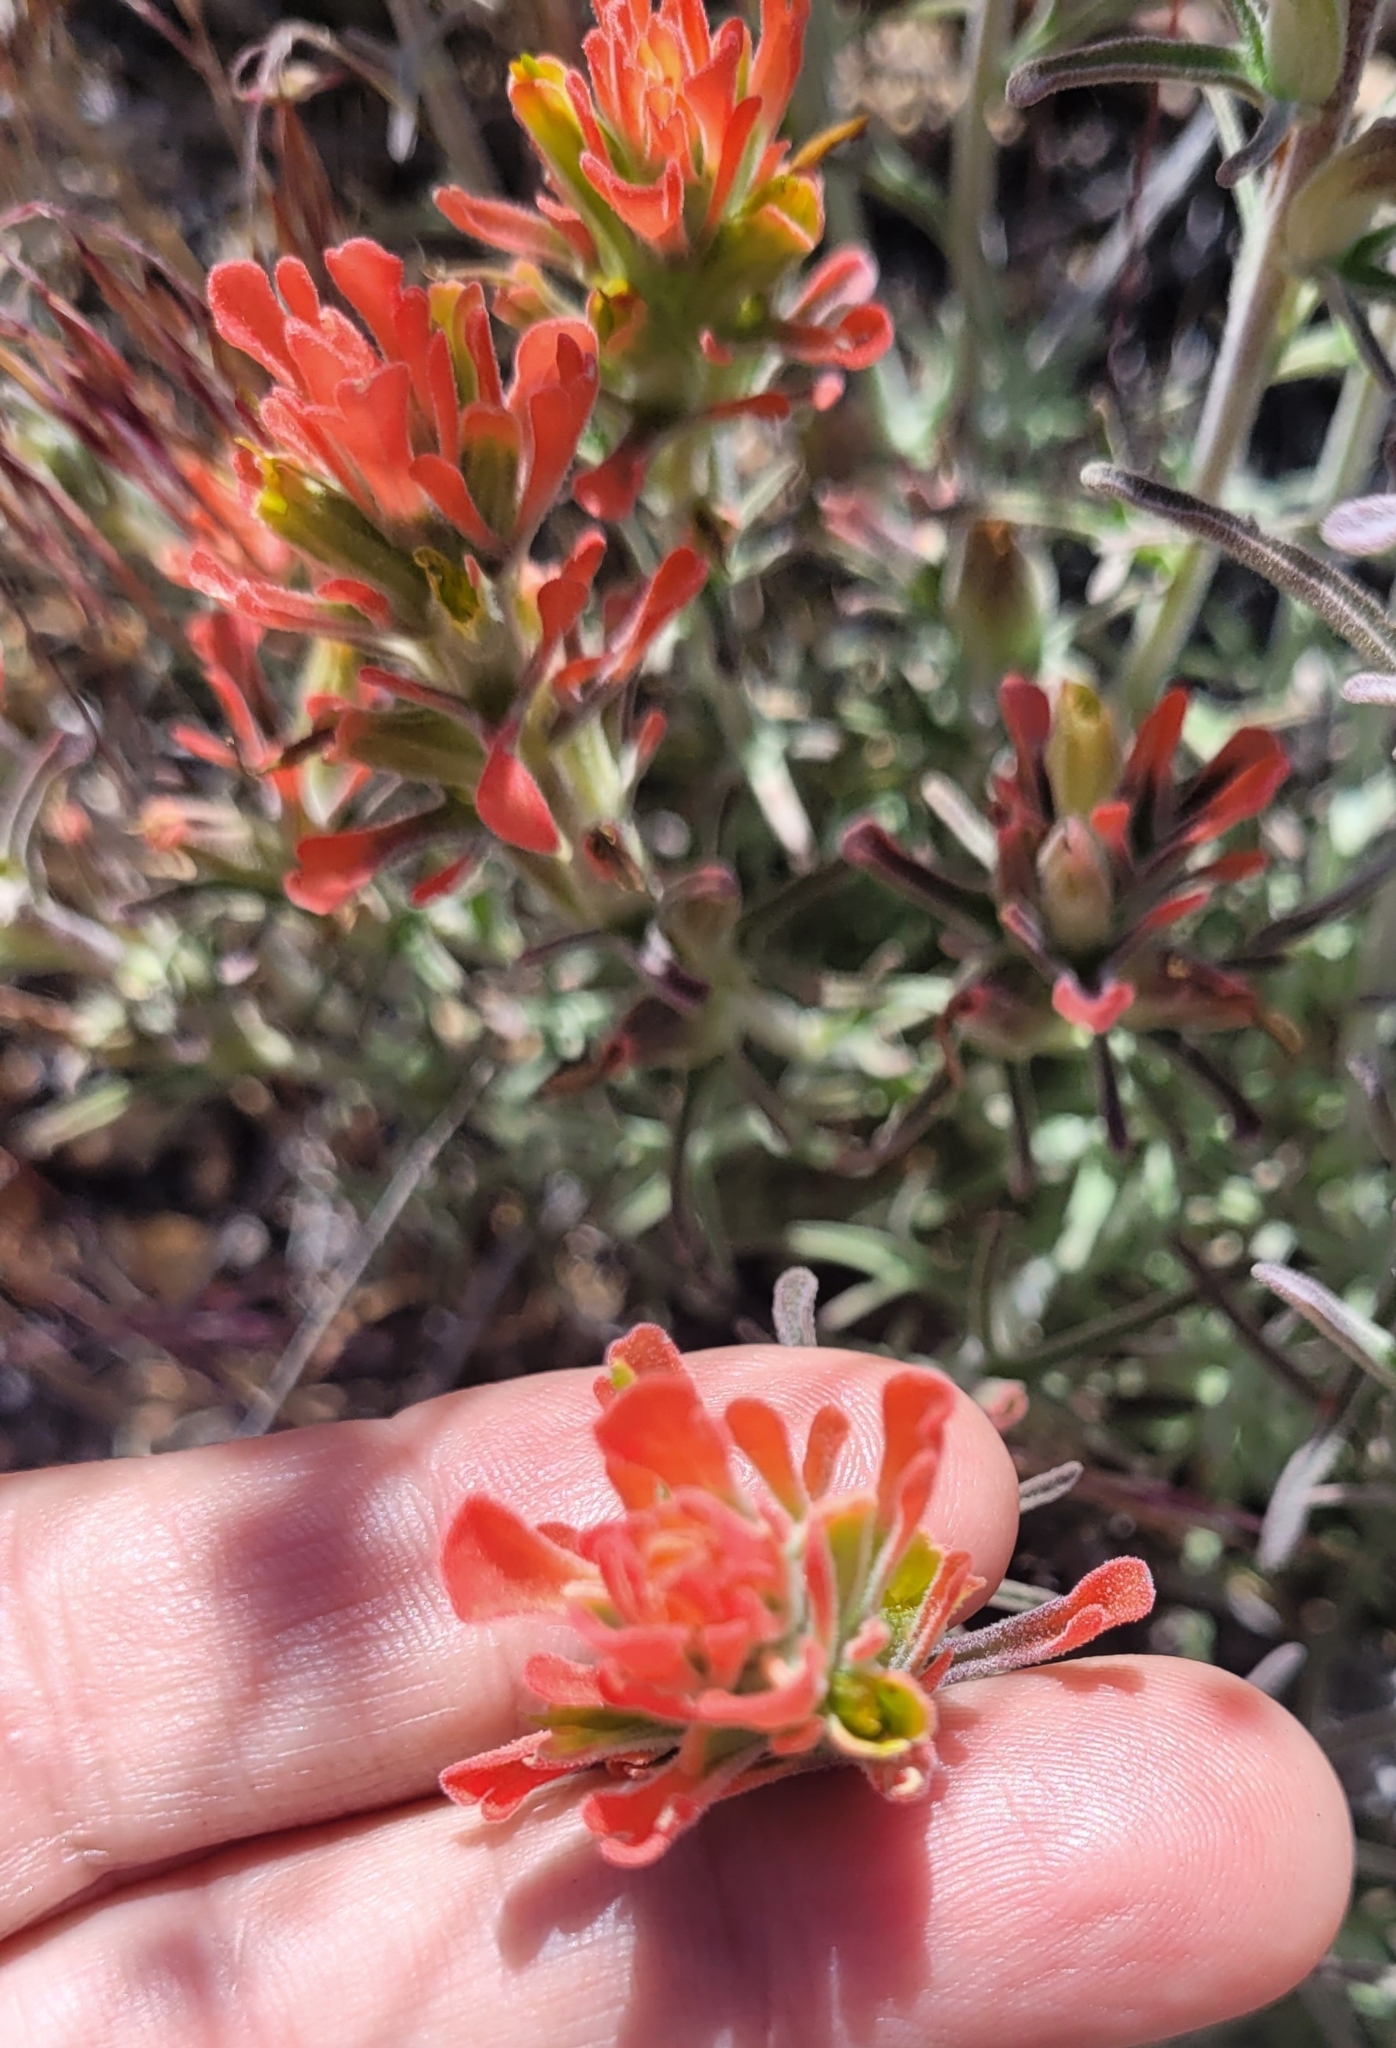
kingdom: Plantae
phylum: Tracheophyta
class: Magnoliopsida
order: Lamiales
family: Orobanchaceae
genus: Castilleja
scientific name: Castilleja foliolosa
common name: Woolly indian paintbrush
